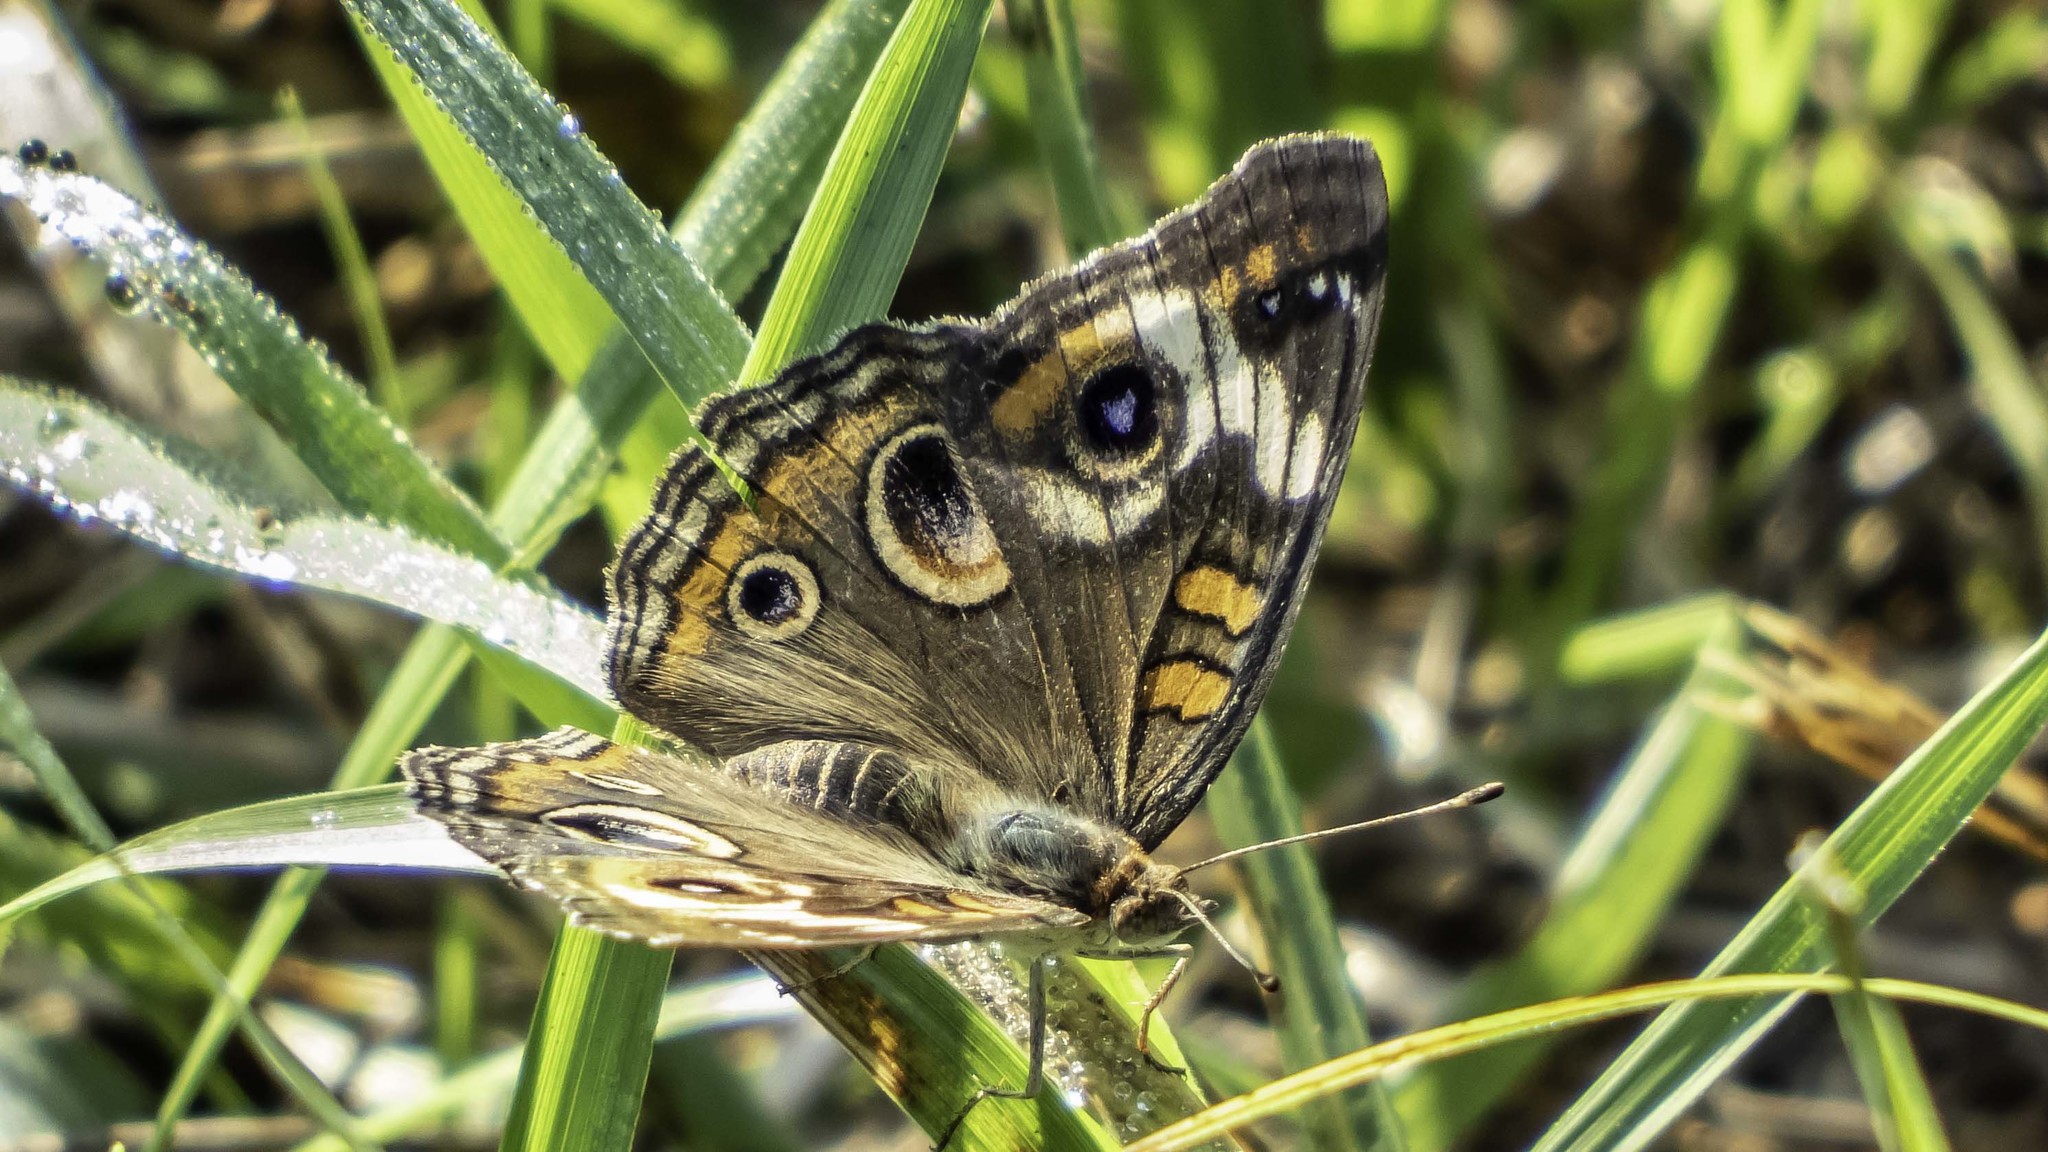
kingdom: Animalia
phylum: Arthropoda
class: Insecta
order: Lepidoptera
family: Nymphalidae
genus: Junonia
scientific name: Junonia coenia
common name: Common buckeye
